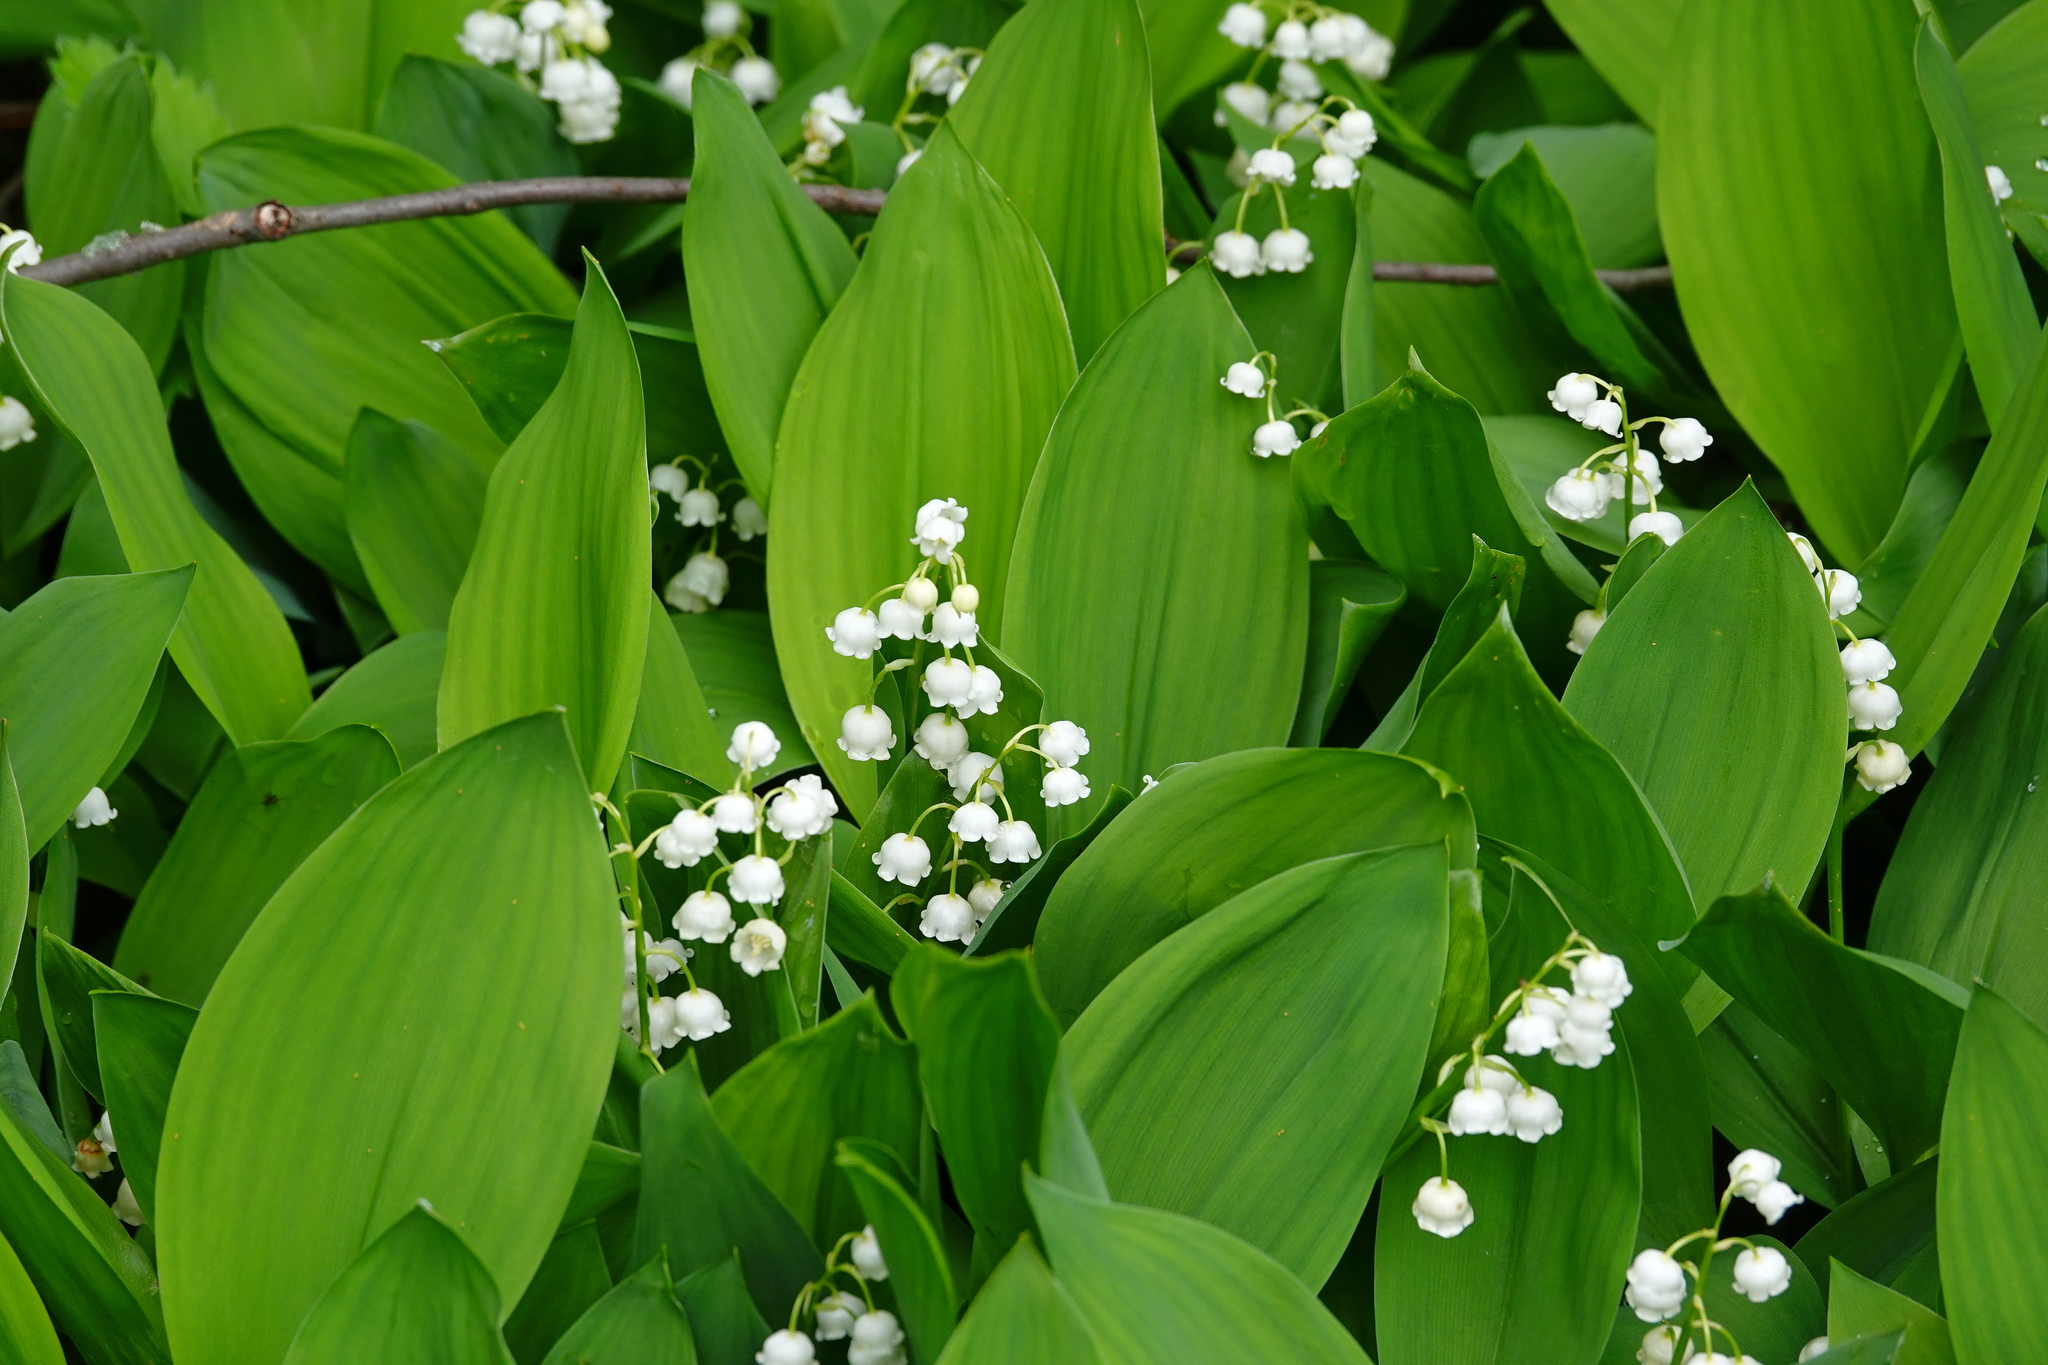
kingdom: Plantae
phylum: Tracheophyta
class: Liliopsida
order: Asparagales
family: Asparagaceae
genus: Convallaria
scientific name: Convallaria majalis
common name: Lily-of-the-valley
